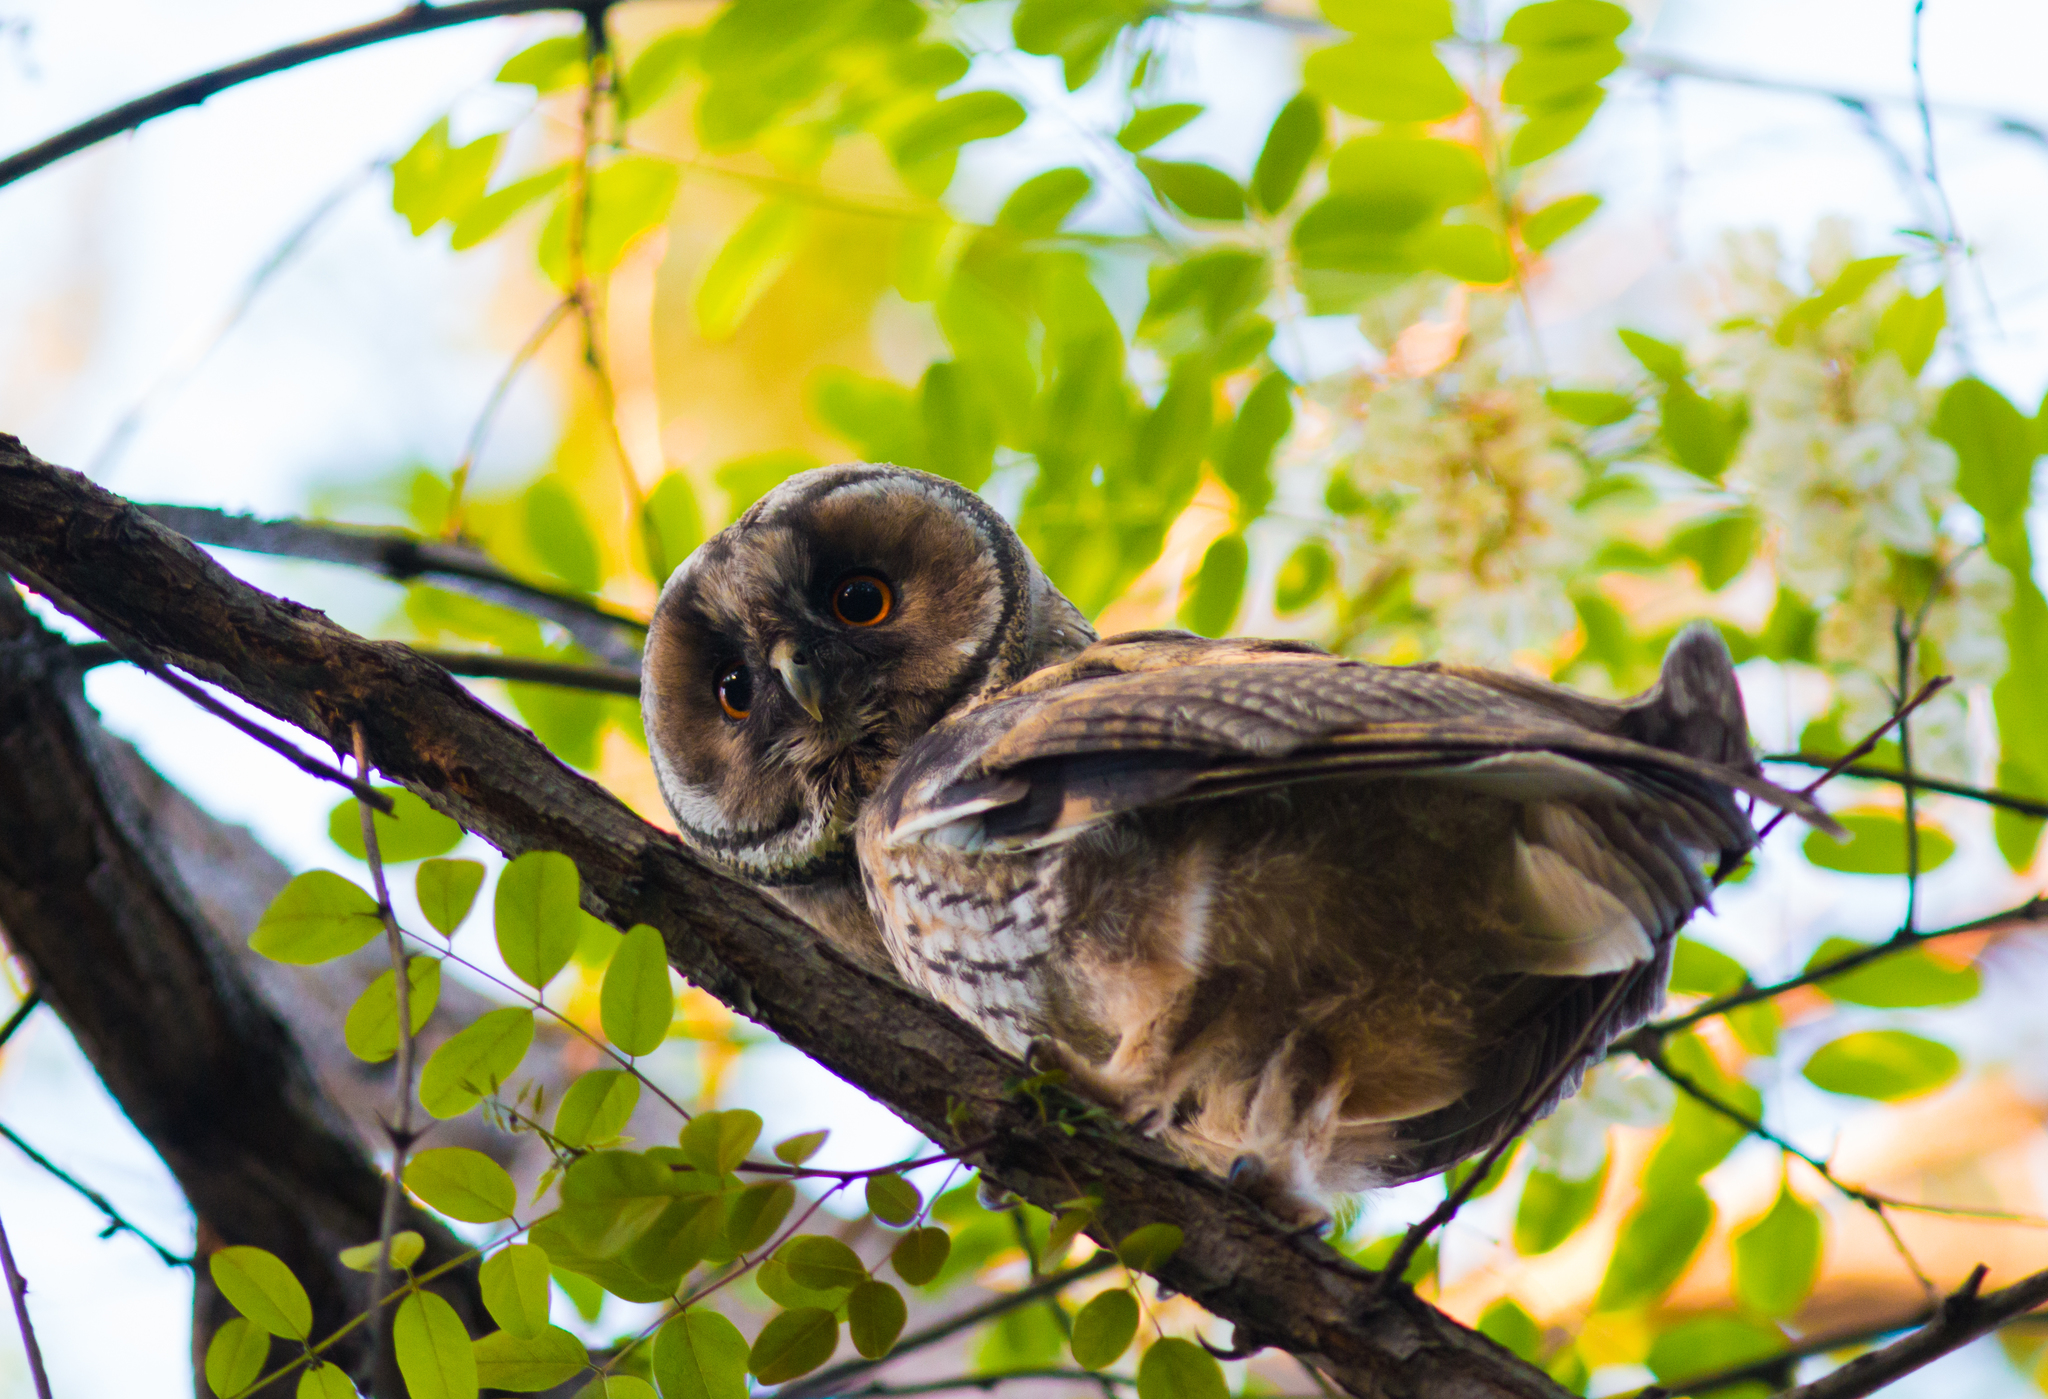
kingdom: Animalia
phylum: Chordata
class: Aves
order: Strigiformes
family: Strigidae
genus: Asio
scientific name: Asio otus
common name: Long-eared owl
